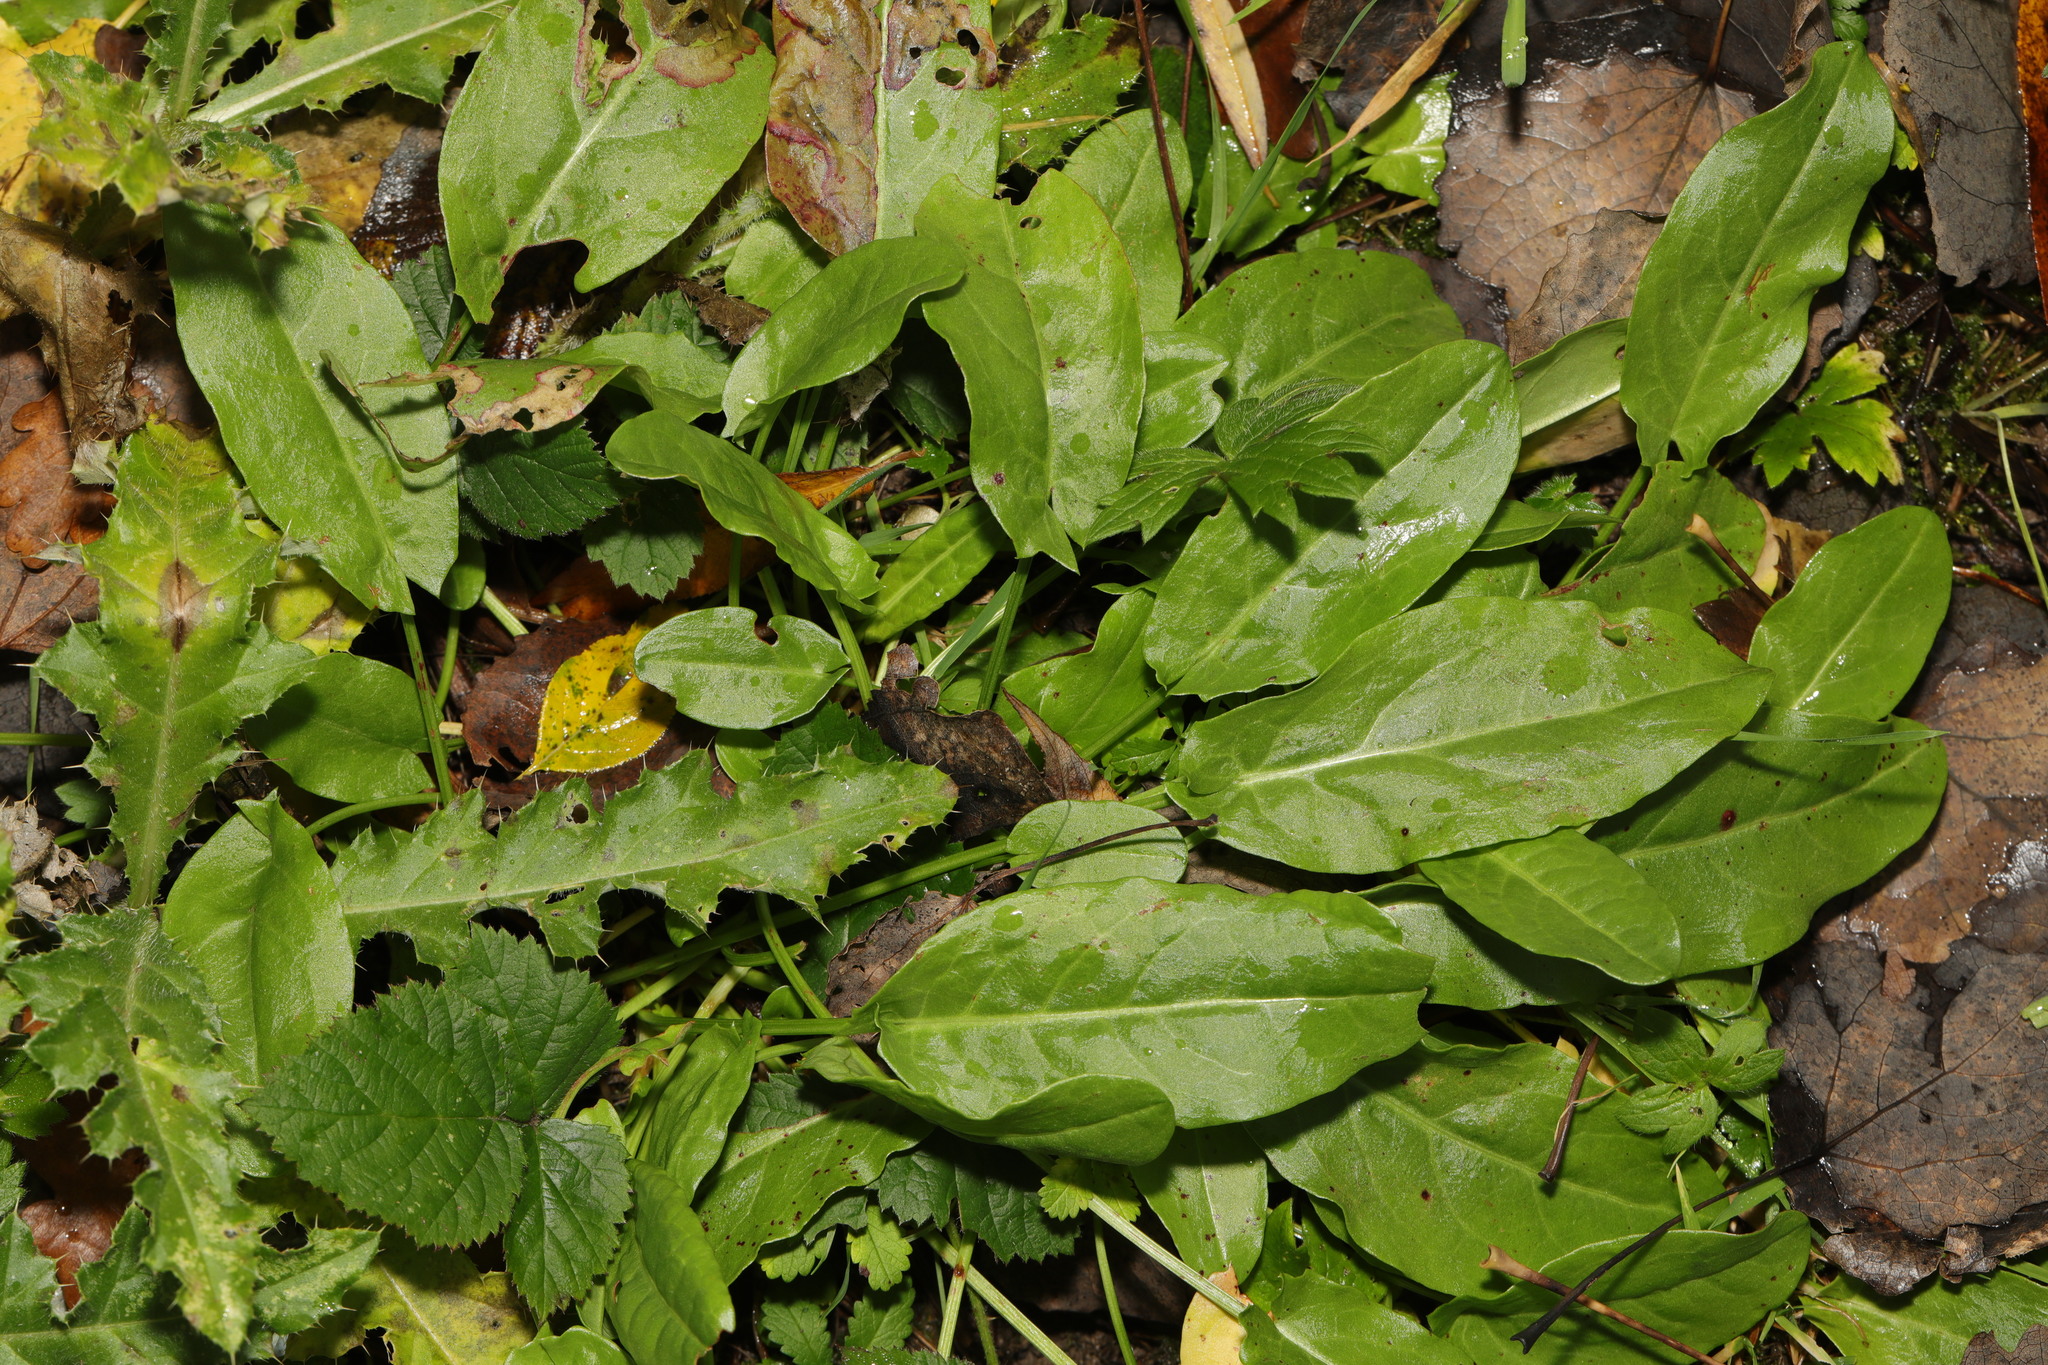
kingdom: Plantae
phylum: Tracheophyta
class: Magnoliopsida
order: Caryophyllales
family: Polygonaceae
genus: Rumex
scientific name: Rumex acetosa
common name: Garden sorrel
